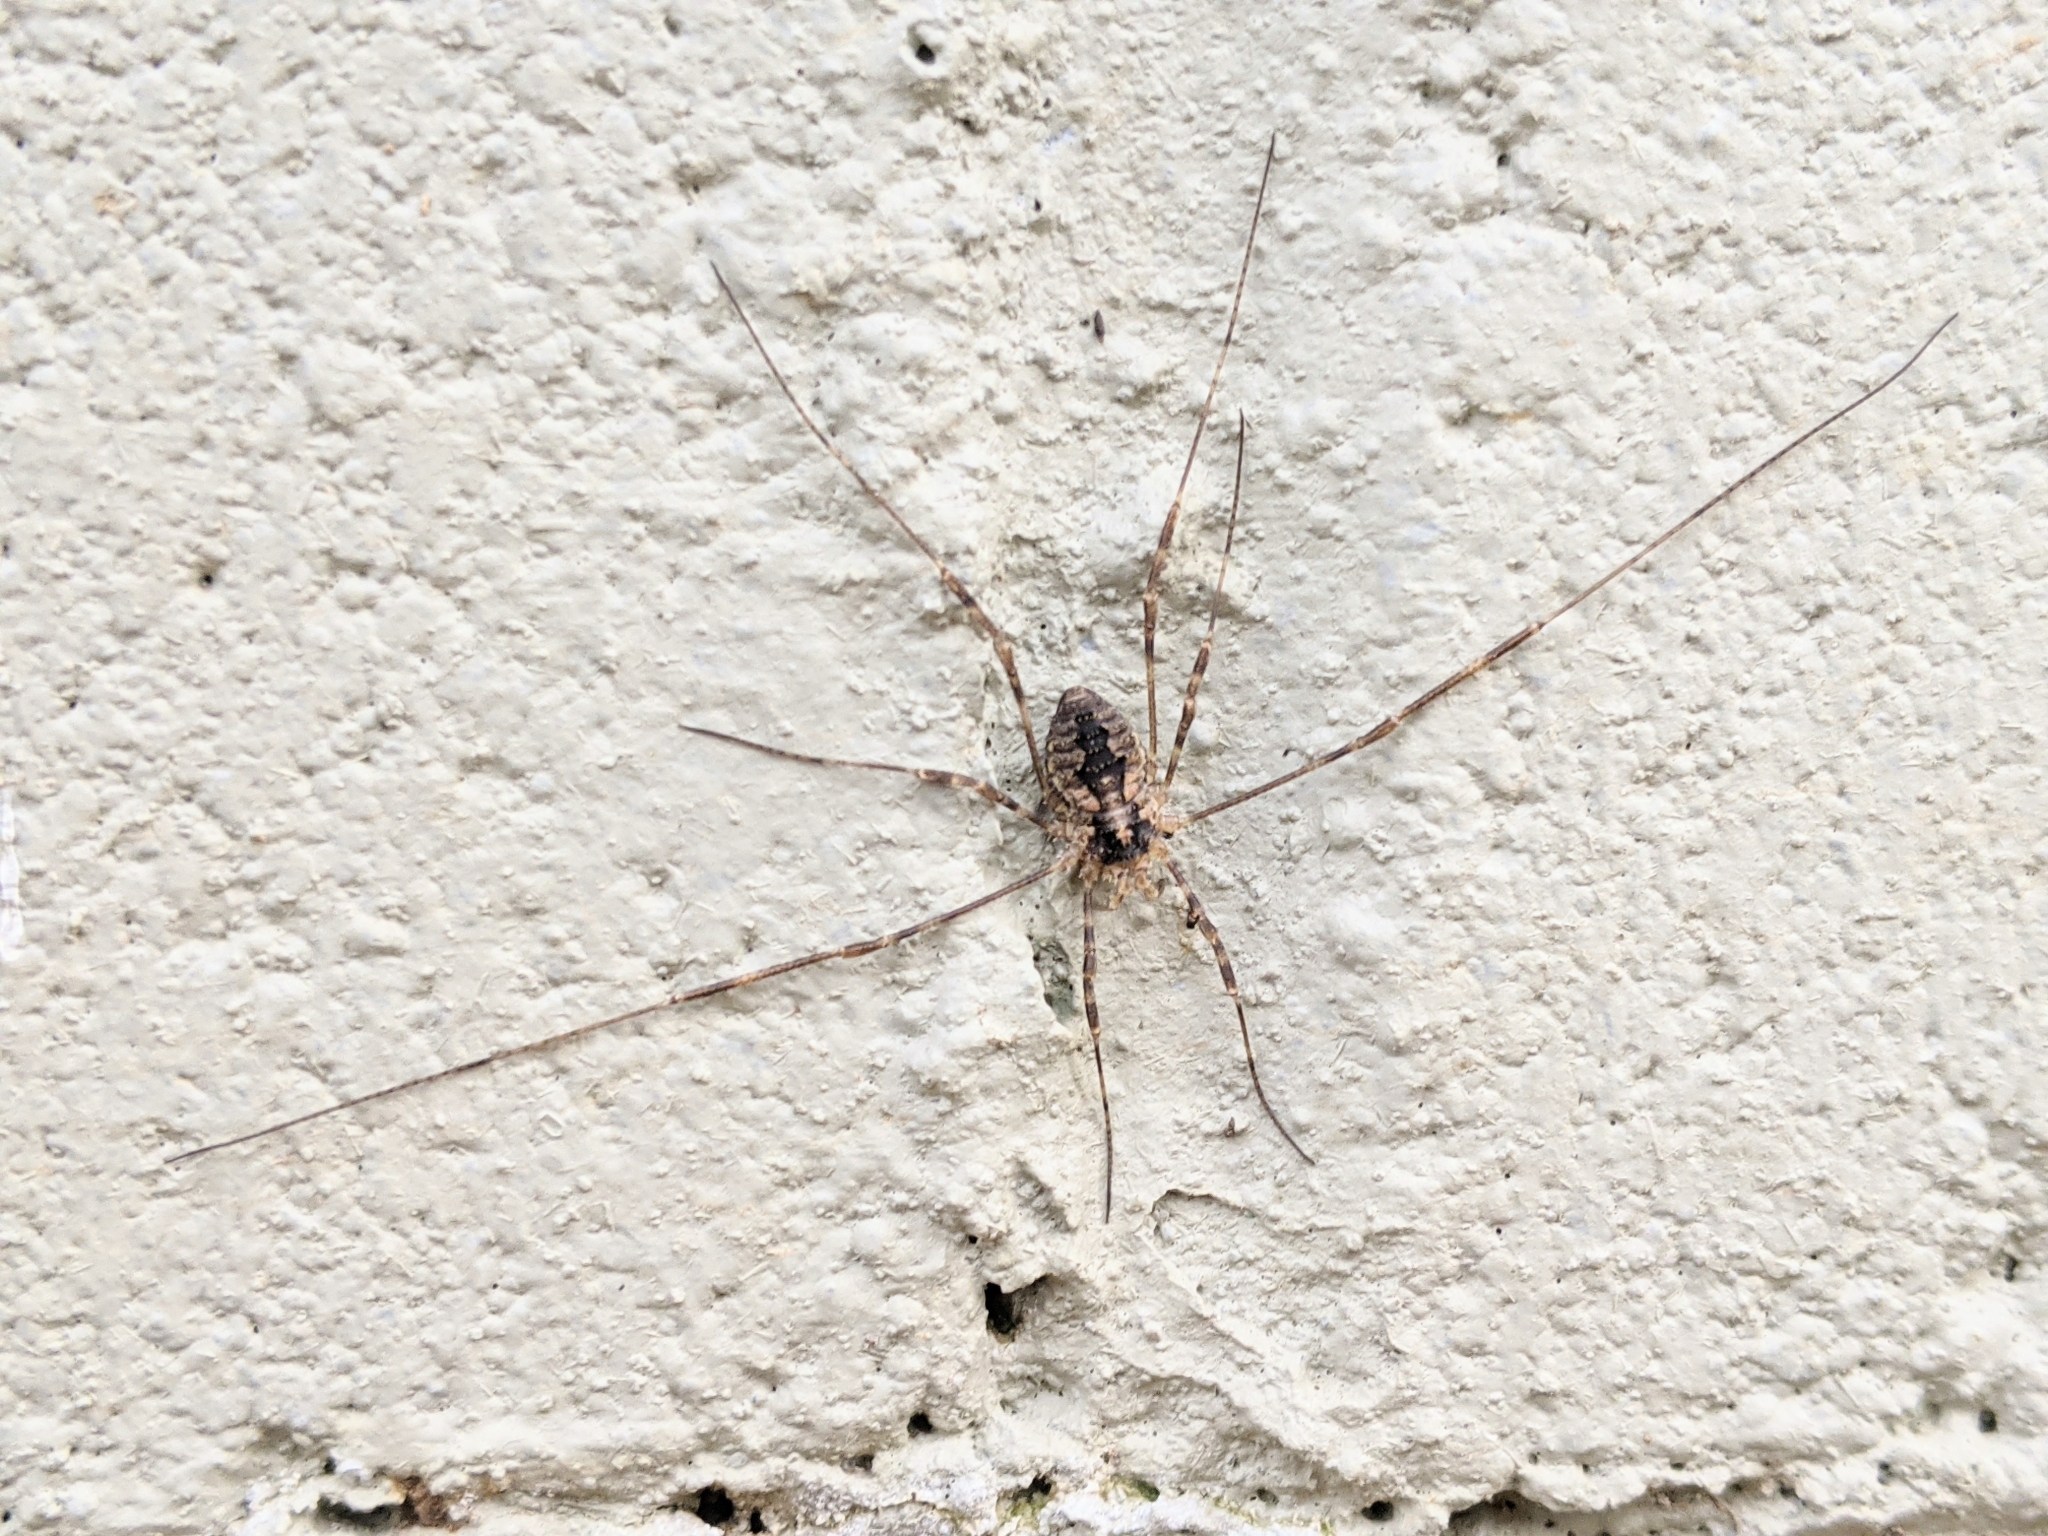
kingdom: Animalia
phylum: Arthropoda
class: Arachnida
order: Opiliones
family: Phalangiidae
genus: Odiellus
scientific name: Odiellus pictus
